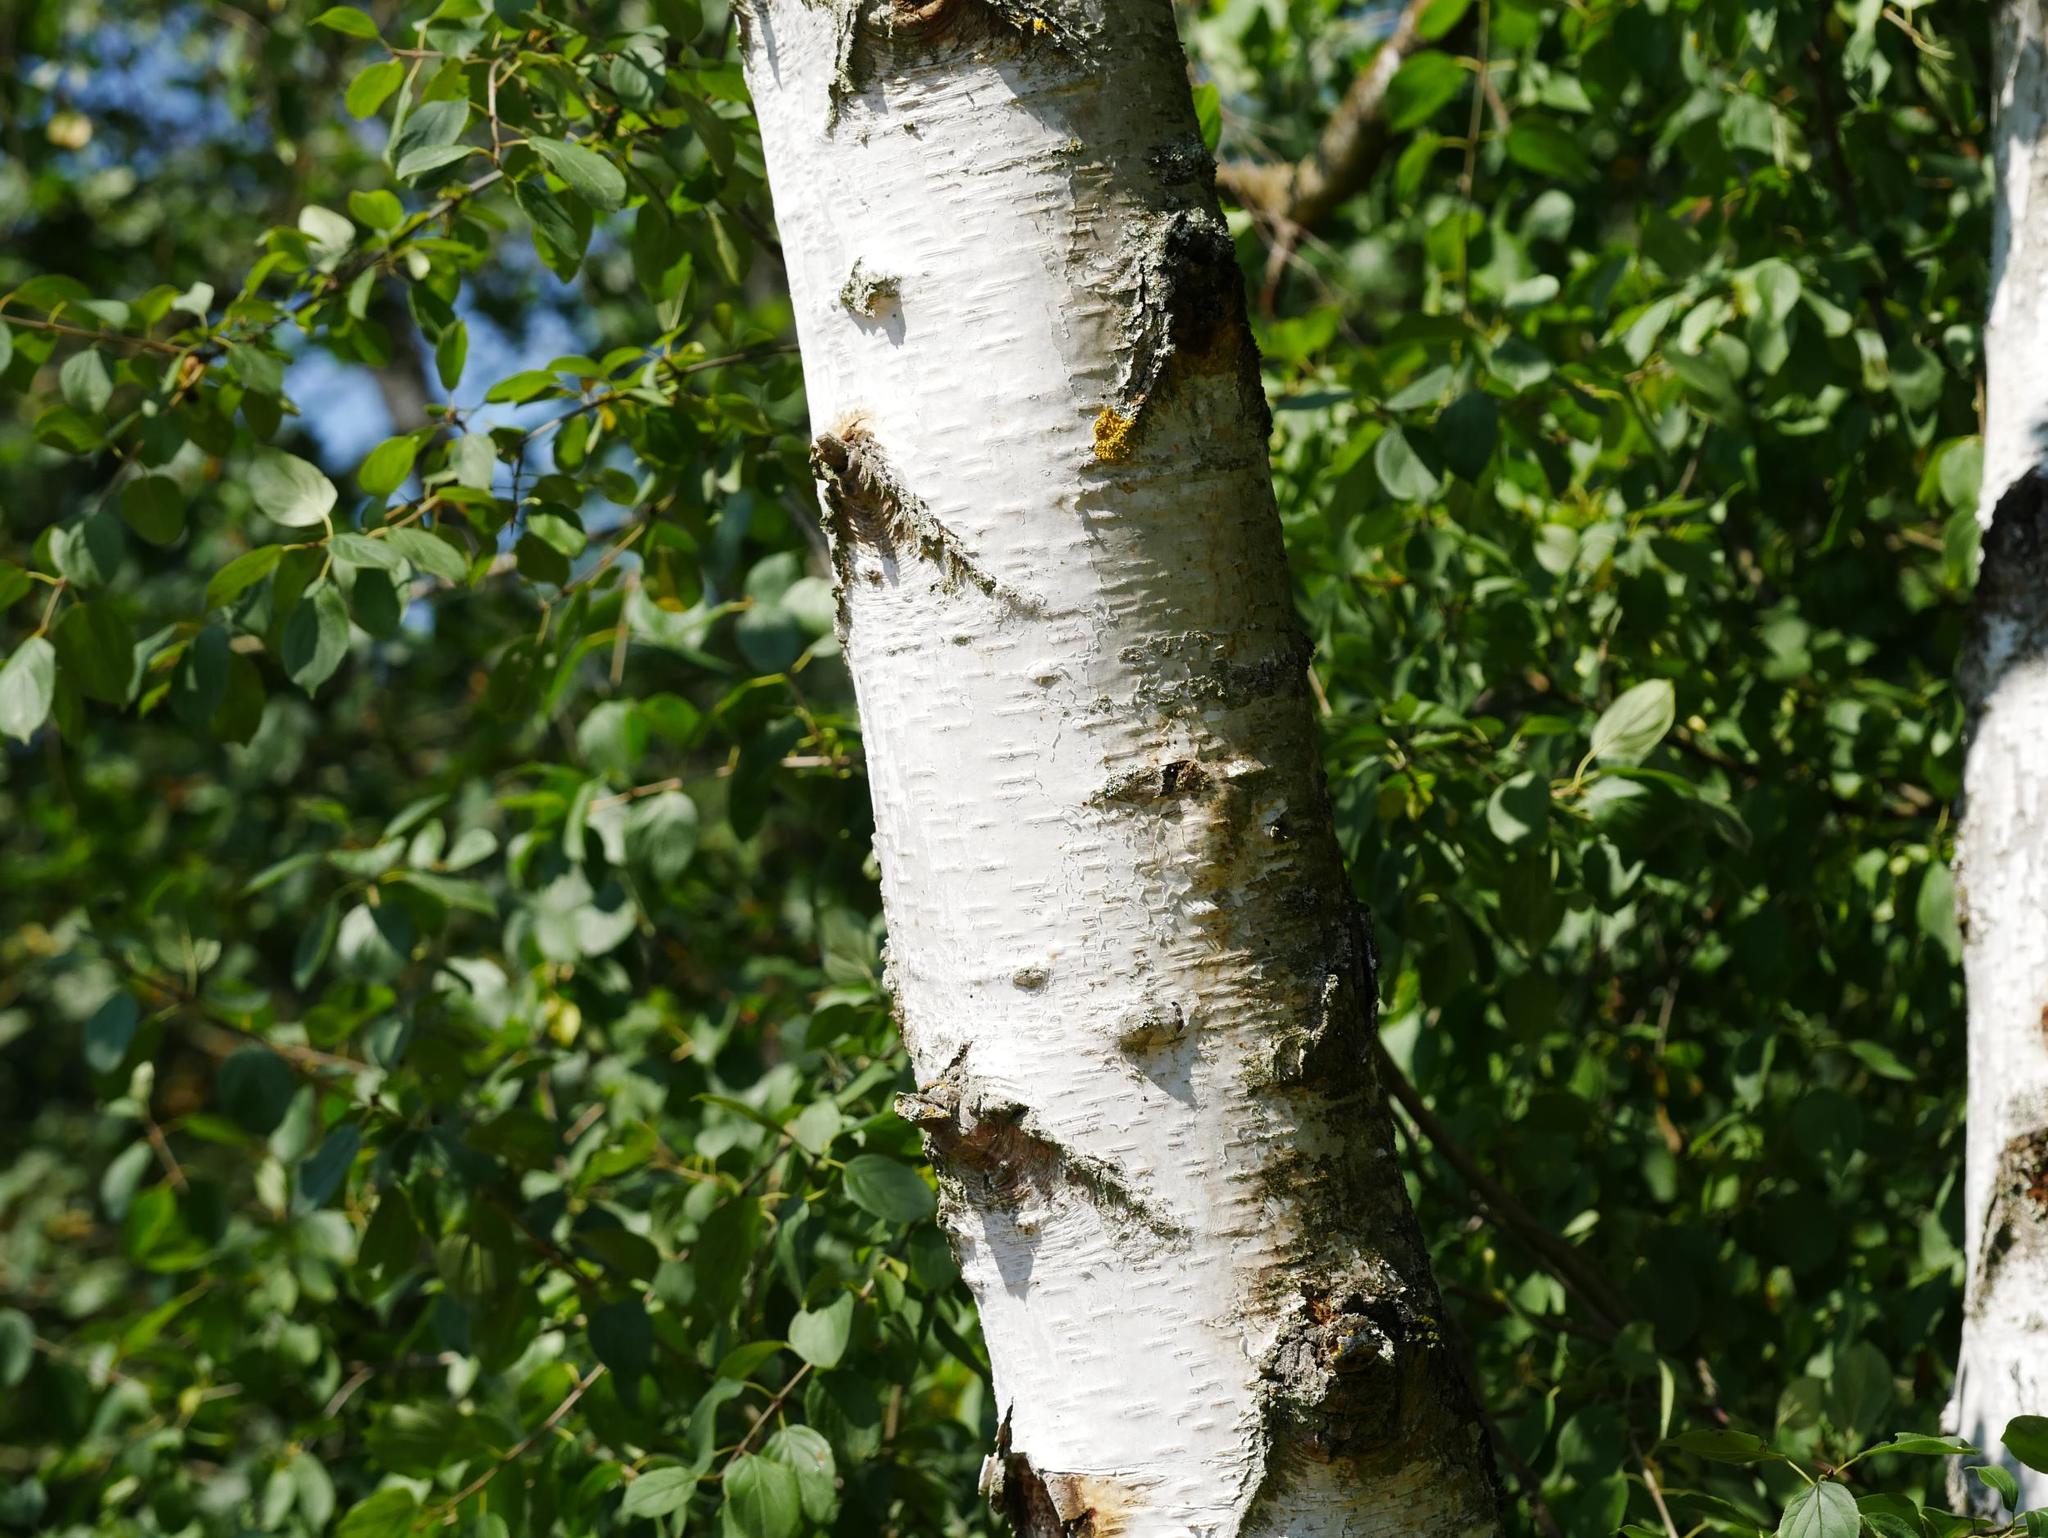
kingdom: Plantae
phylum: Tracheophyta
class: Magnoliopsida
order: Fagales
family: Betulaceae
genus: Betula
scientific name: Betula pendula
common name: Silver birch
